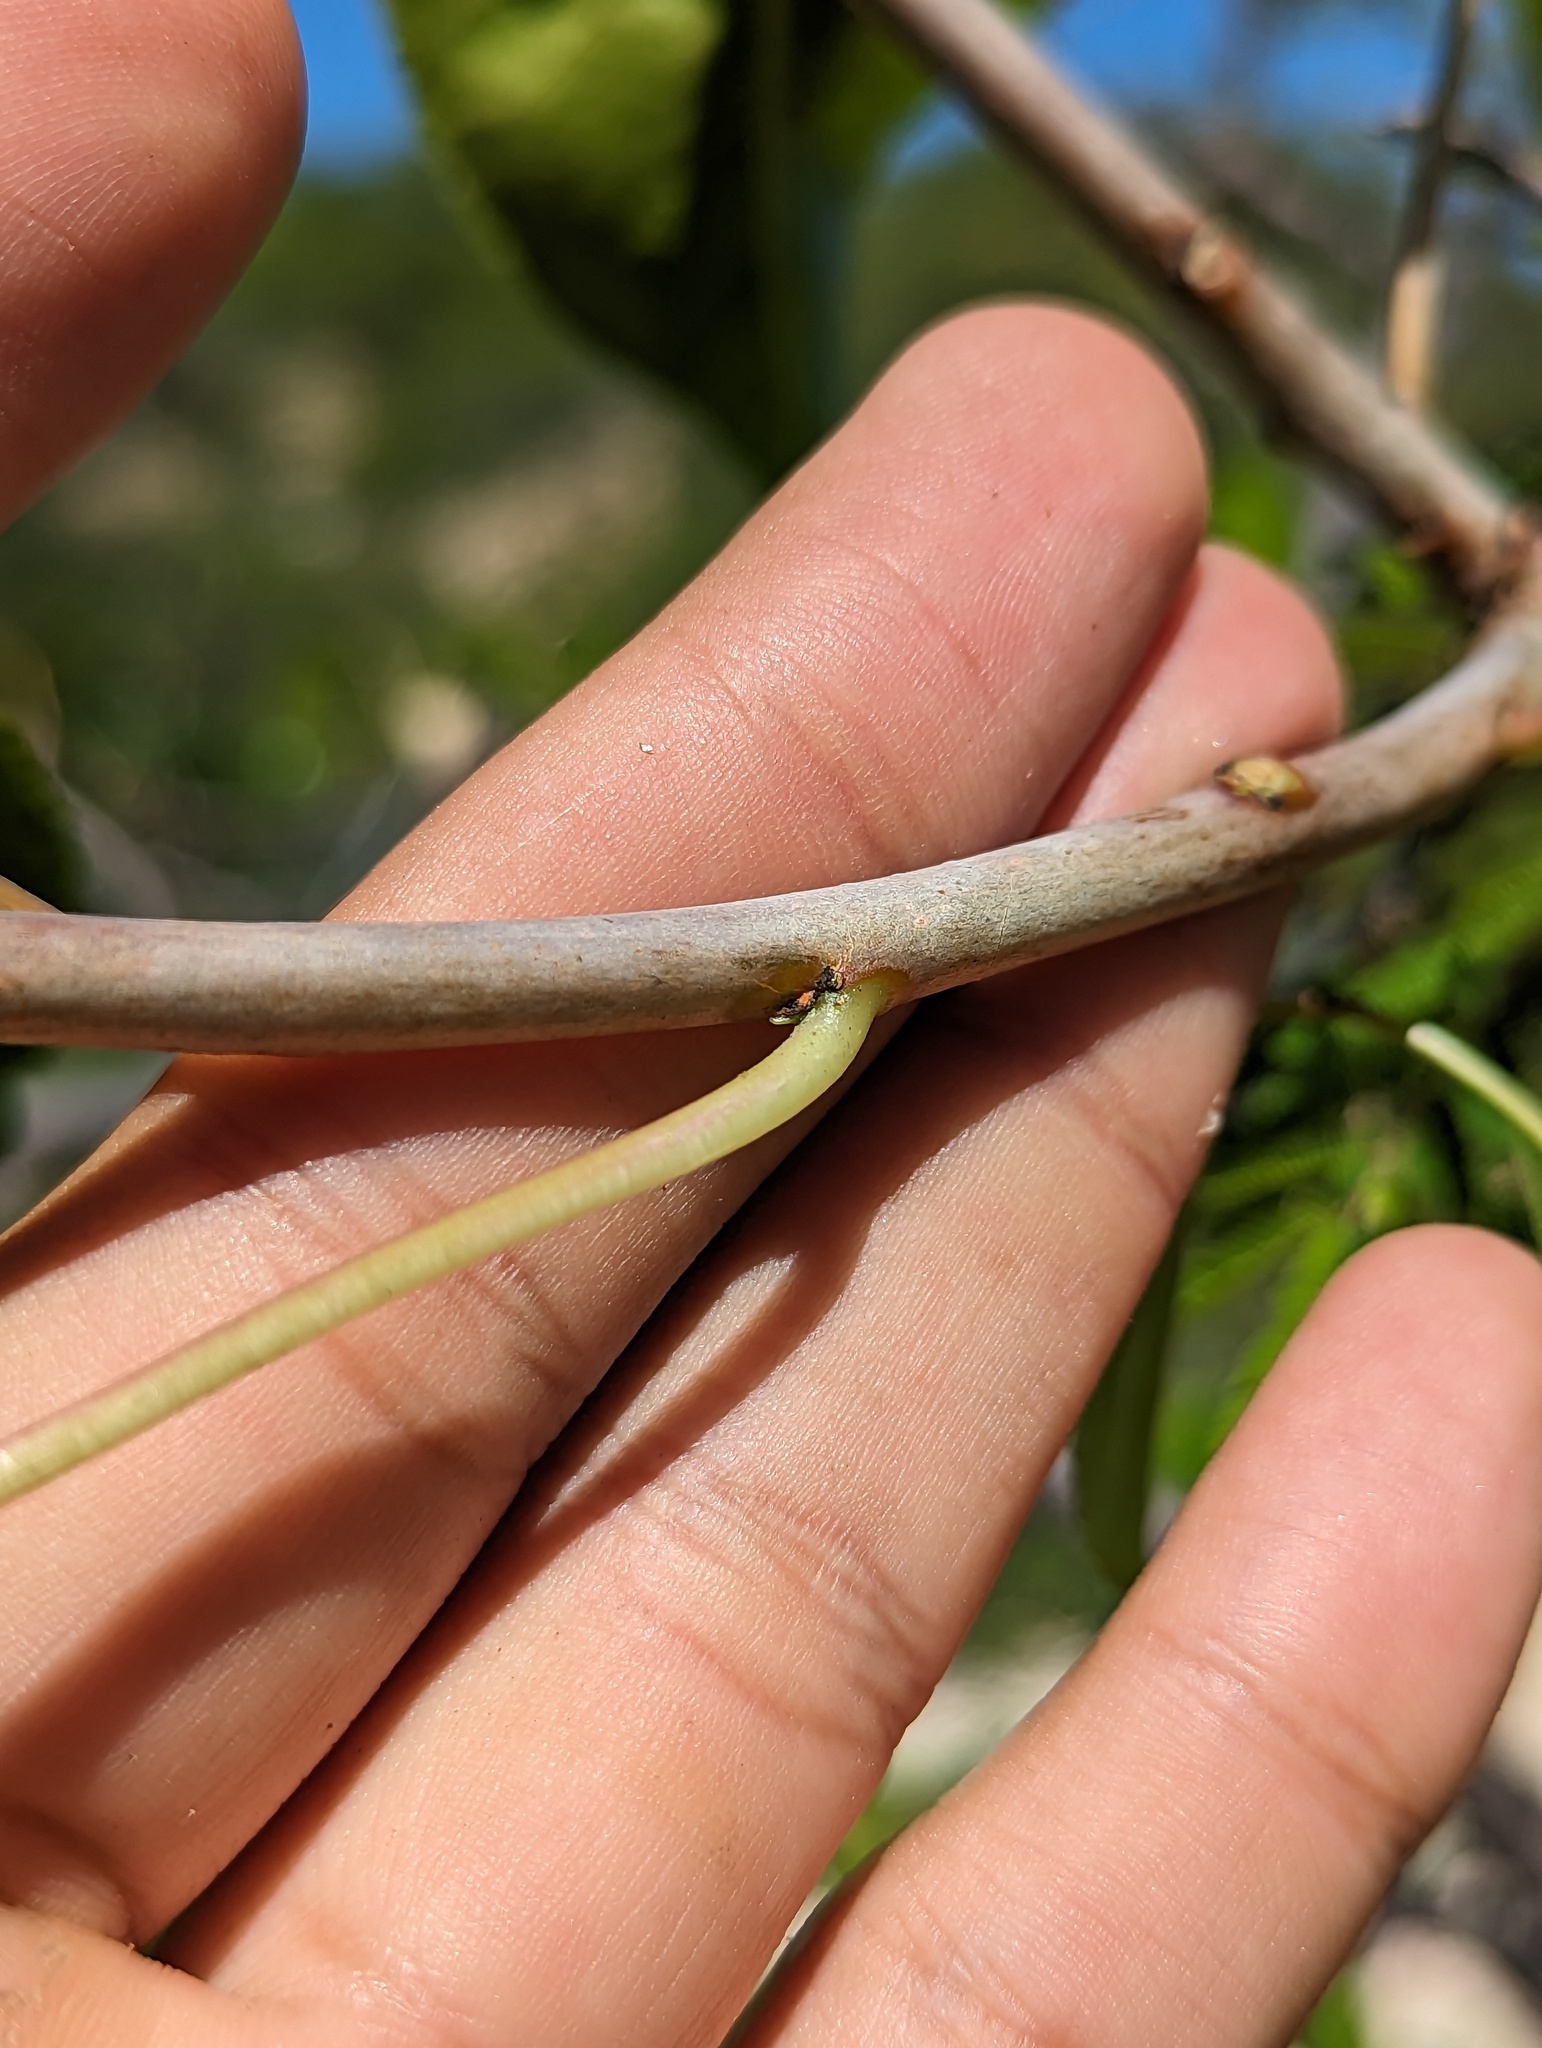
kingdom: Plantae
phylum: Tracheophyta
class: Magnoliopsida
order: Malpighiales
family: Euphorbiaceae
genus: Jatropha
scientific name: Jatropha vernicosa
